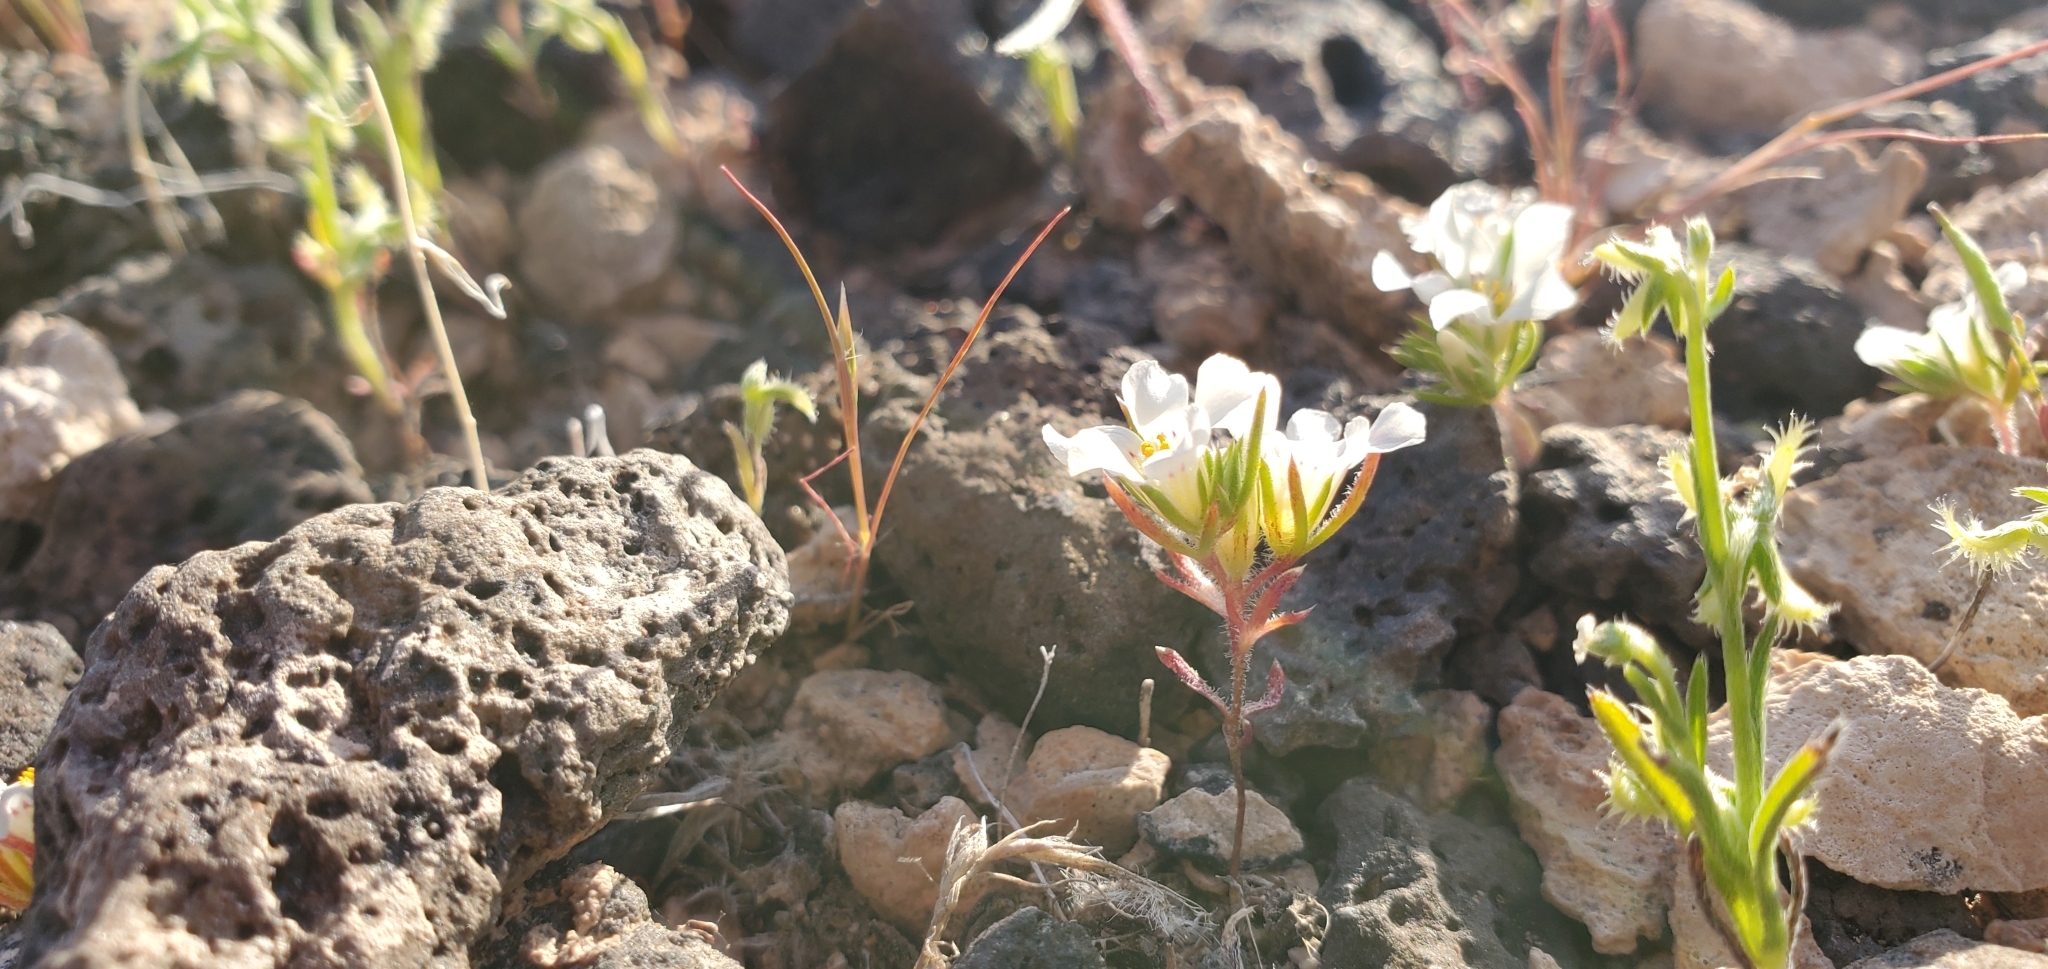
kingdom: Plantae
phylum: Tracheophyta
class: Magnoliopsida
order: Ericales
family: Polemoniaceae
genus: Linanthus
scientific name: Linanthus demissus
